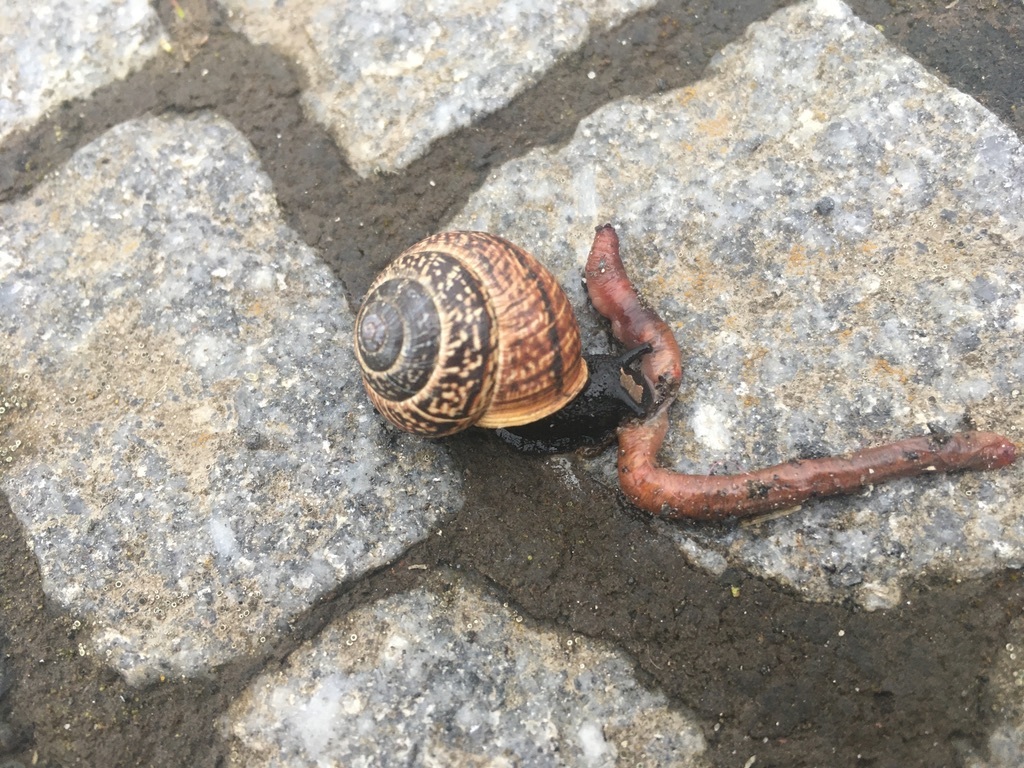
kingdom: Animalia
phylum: Mollusca
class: Gastropoda
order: Stylommatophora
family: Helicidae
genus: Arianta
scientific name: Arianta arbustorum
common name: Copse snail
